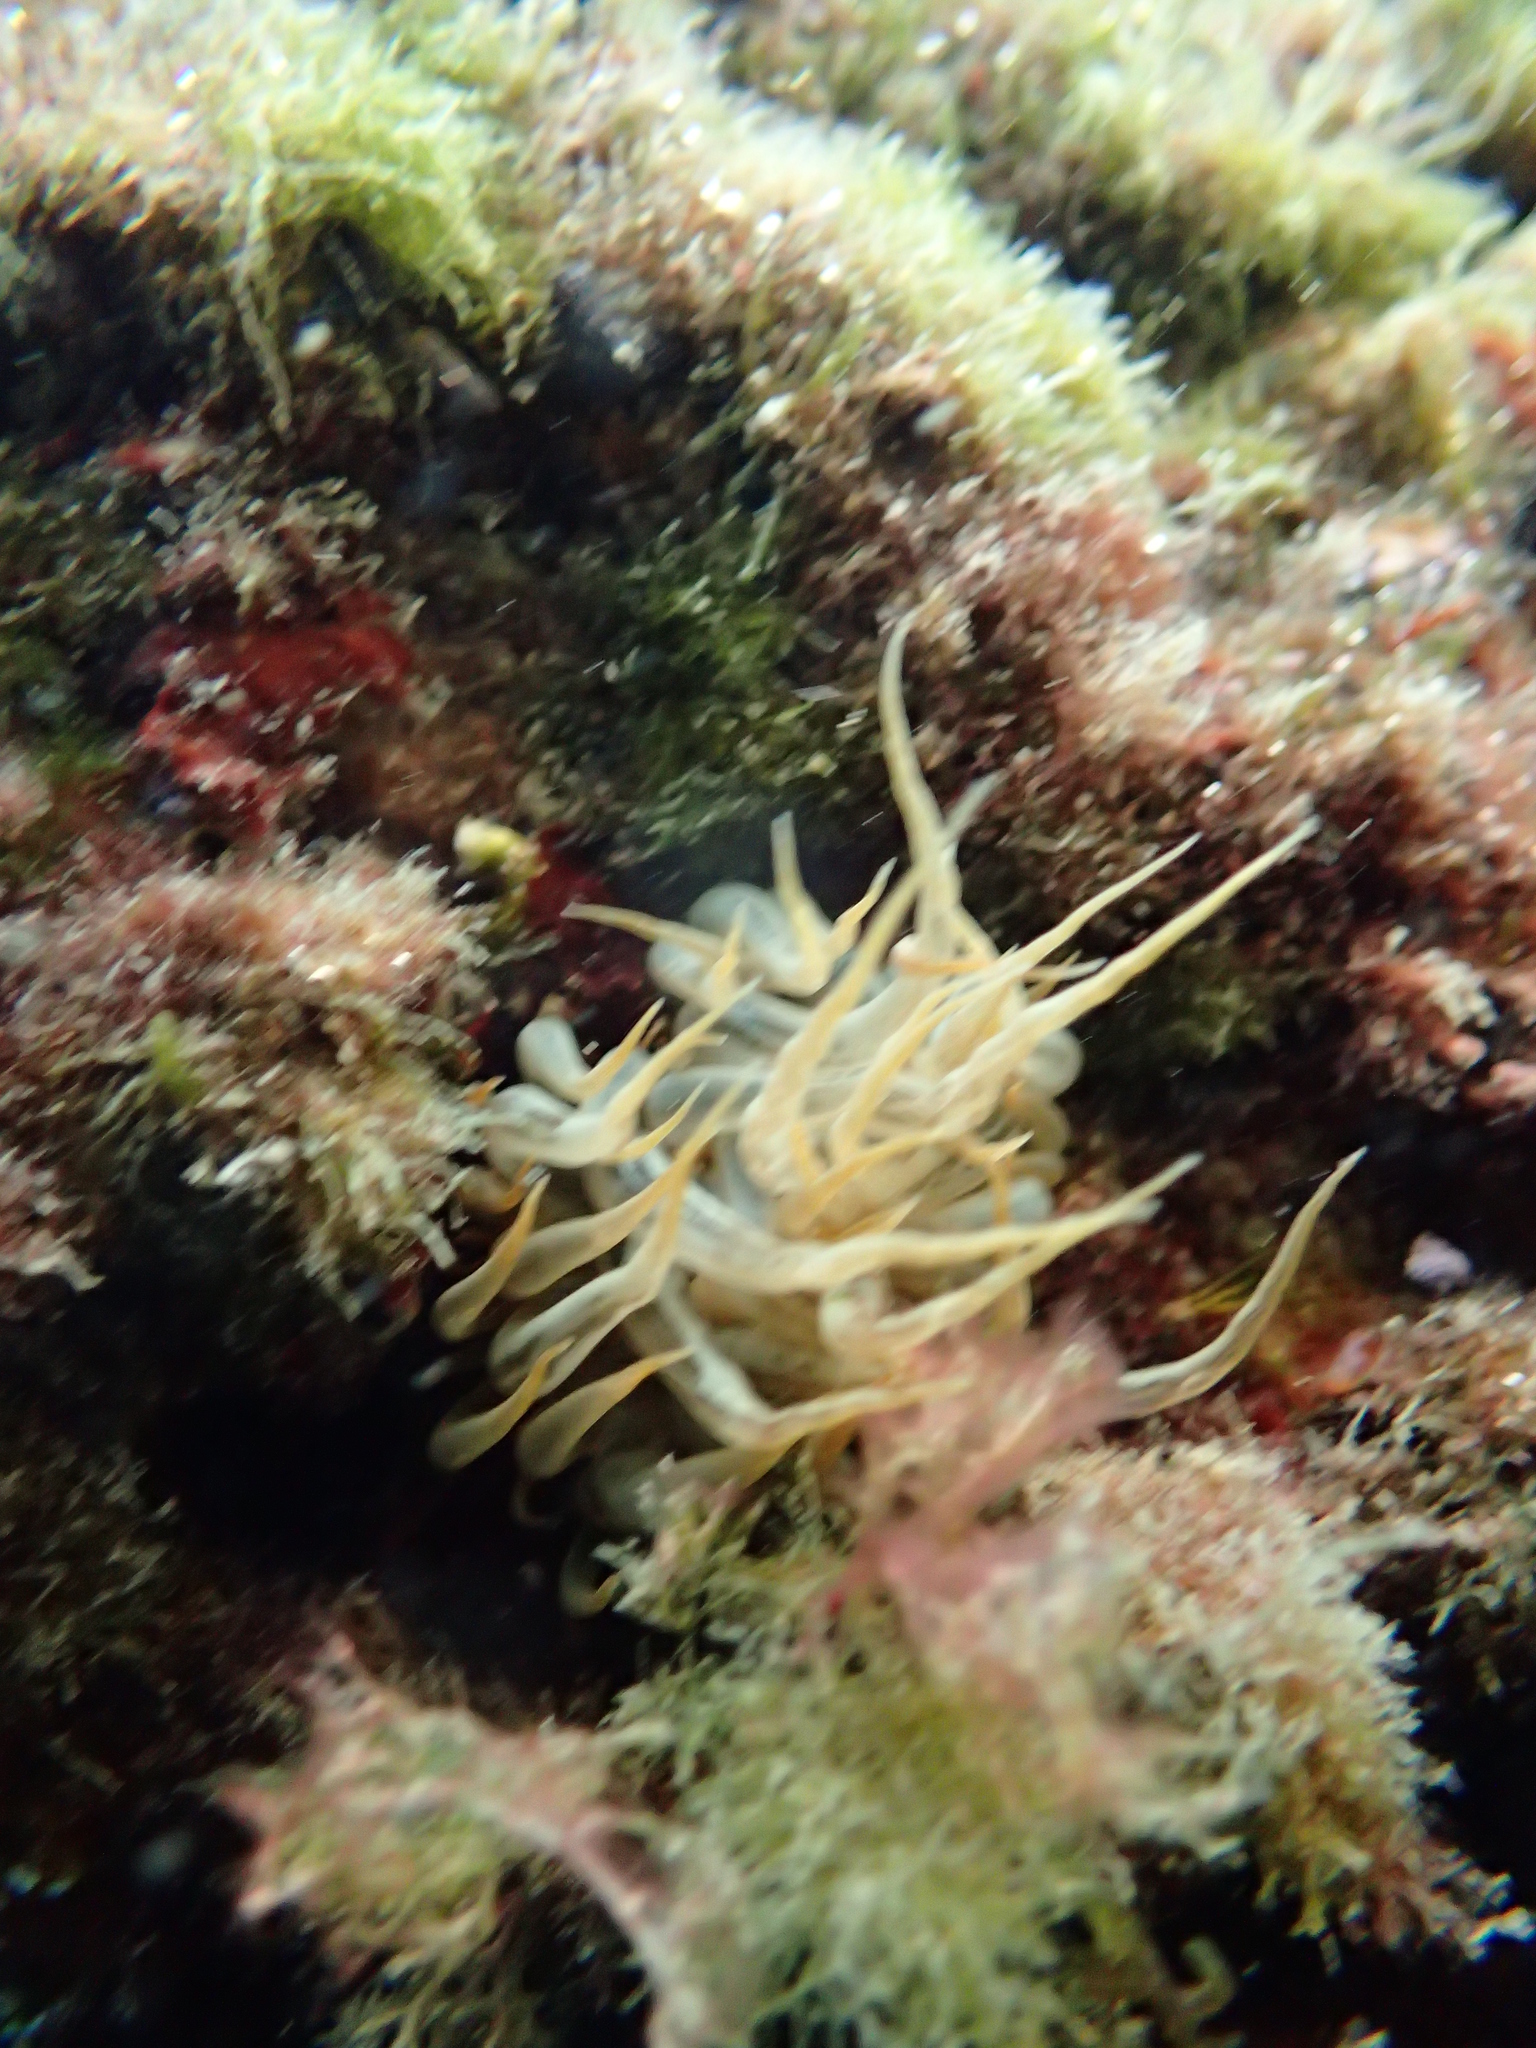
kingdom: Animalia
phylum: Cnidaria
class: Anthozoa
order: Actiniaria
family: Aiptasiidae
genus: Aiptasia
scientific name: Aiptasia mutabilis
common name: Trumpet anemone
